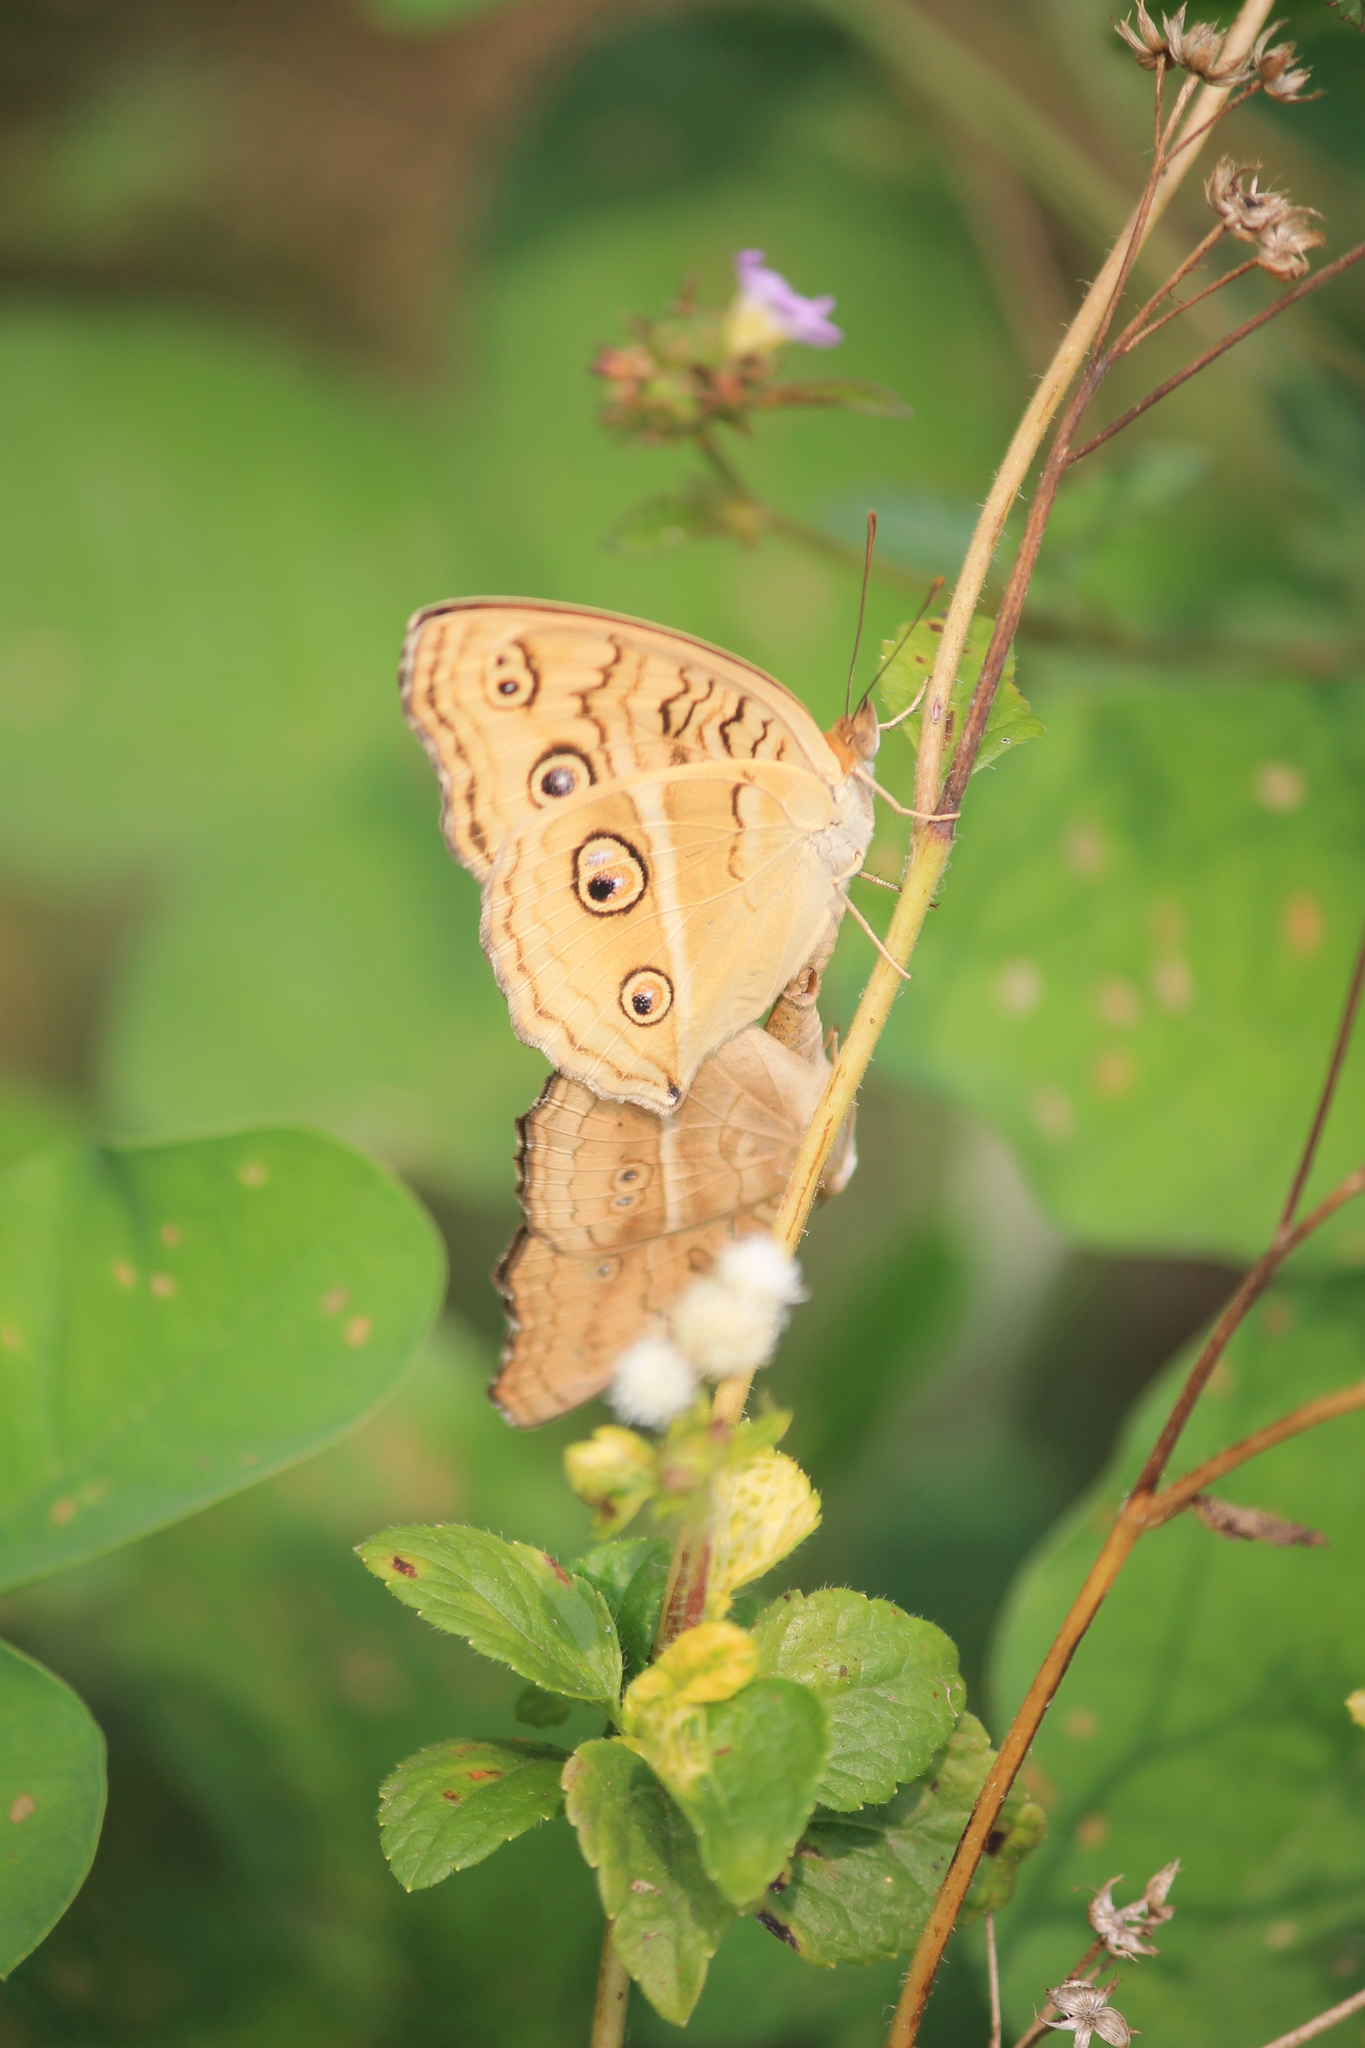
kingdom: Animalia
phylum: Arthropoda
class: Insecta
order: Lepidoptera
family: Nymphalidae
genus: Junonia
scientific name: Junonia almana
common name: Peacock pansy
